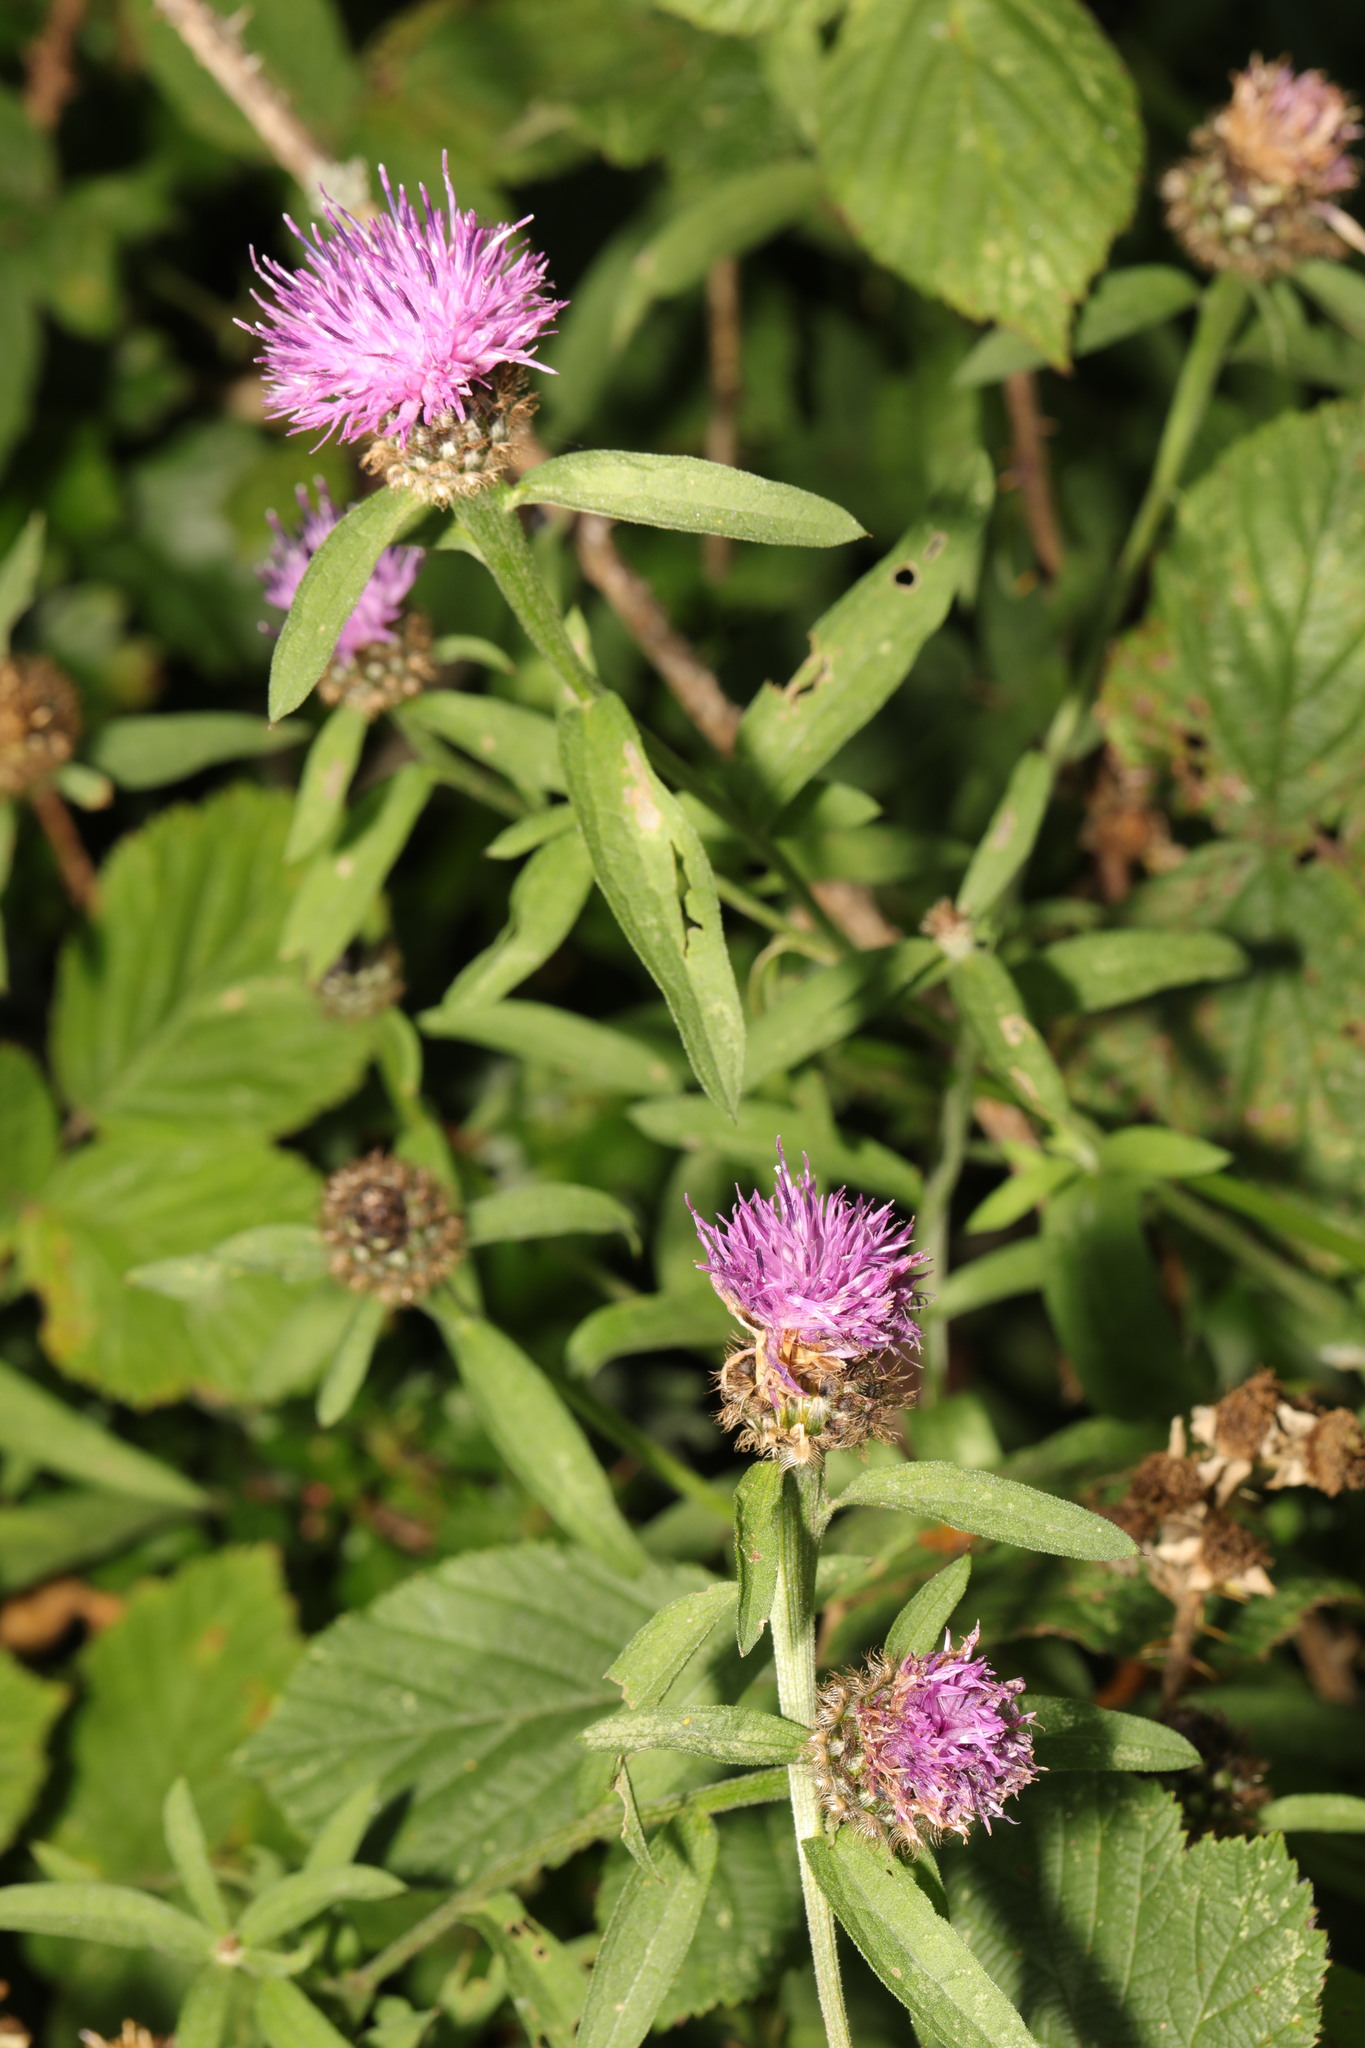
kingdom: Plantae
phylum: Tracheophyta
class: Magnoliopsida
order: Asterales
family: Asteraceae
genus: Centaurea
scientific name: Centaurea nigra
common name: Lesser knapweed
